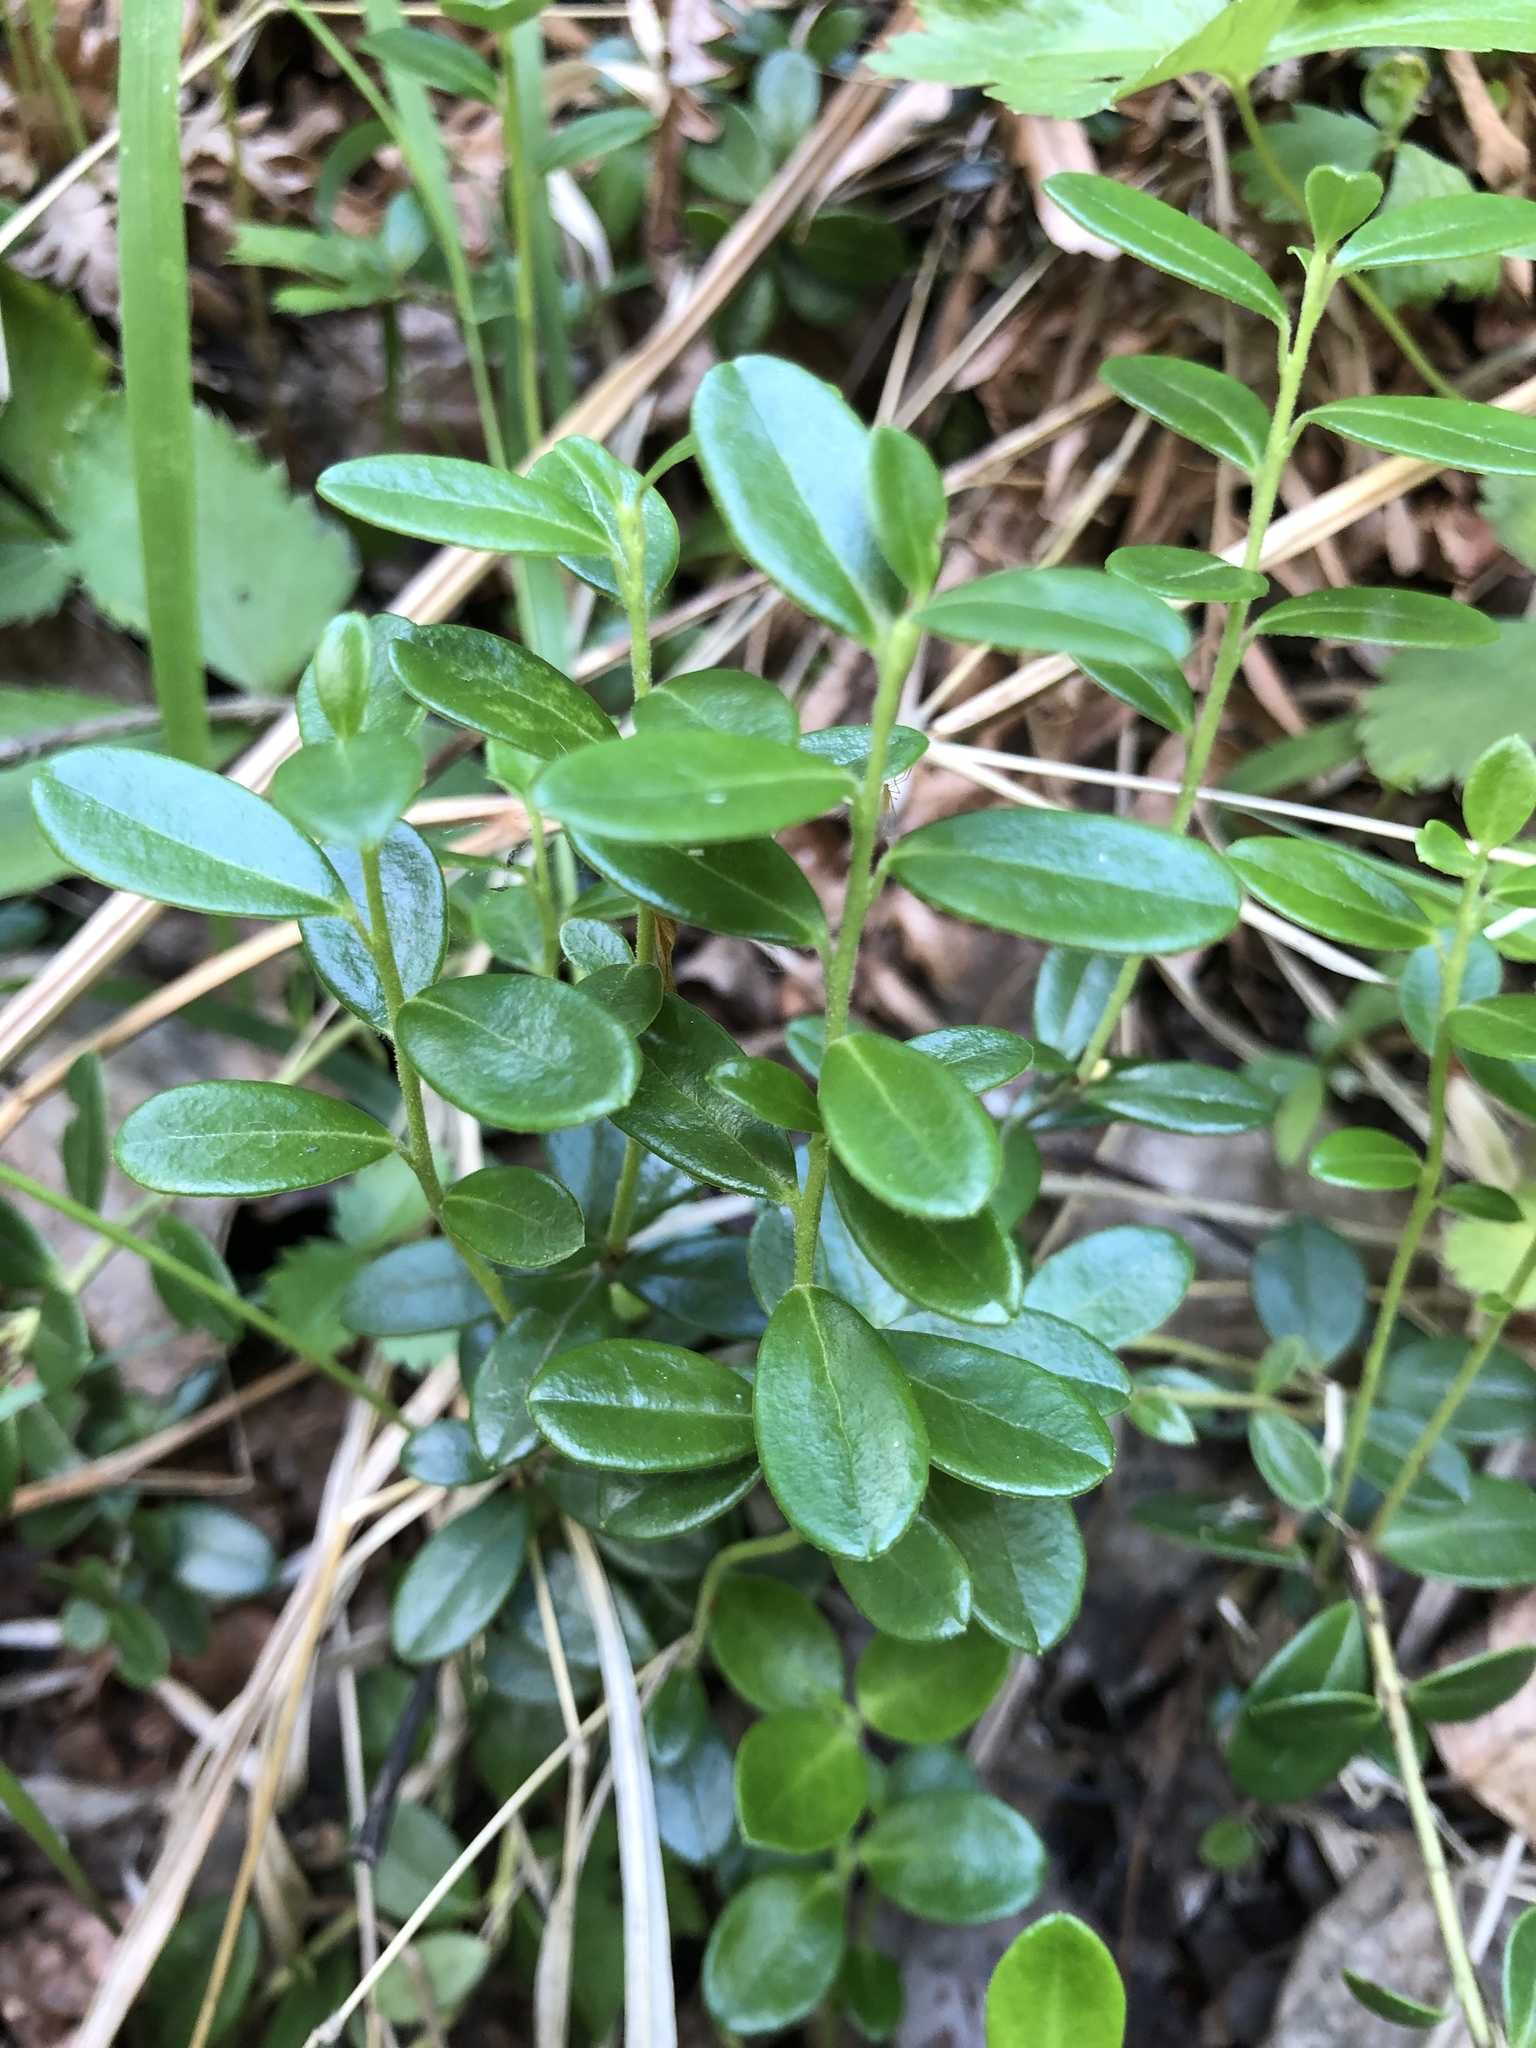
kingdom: Plantae
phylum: Tracheophyta
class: Magnoliopsida
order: Ericales
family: Ericaceae
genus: Vaccinium
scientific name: Vaccinium vitis-idaea
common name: Cowberry
